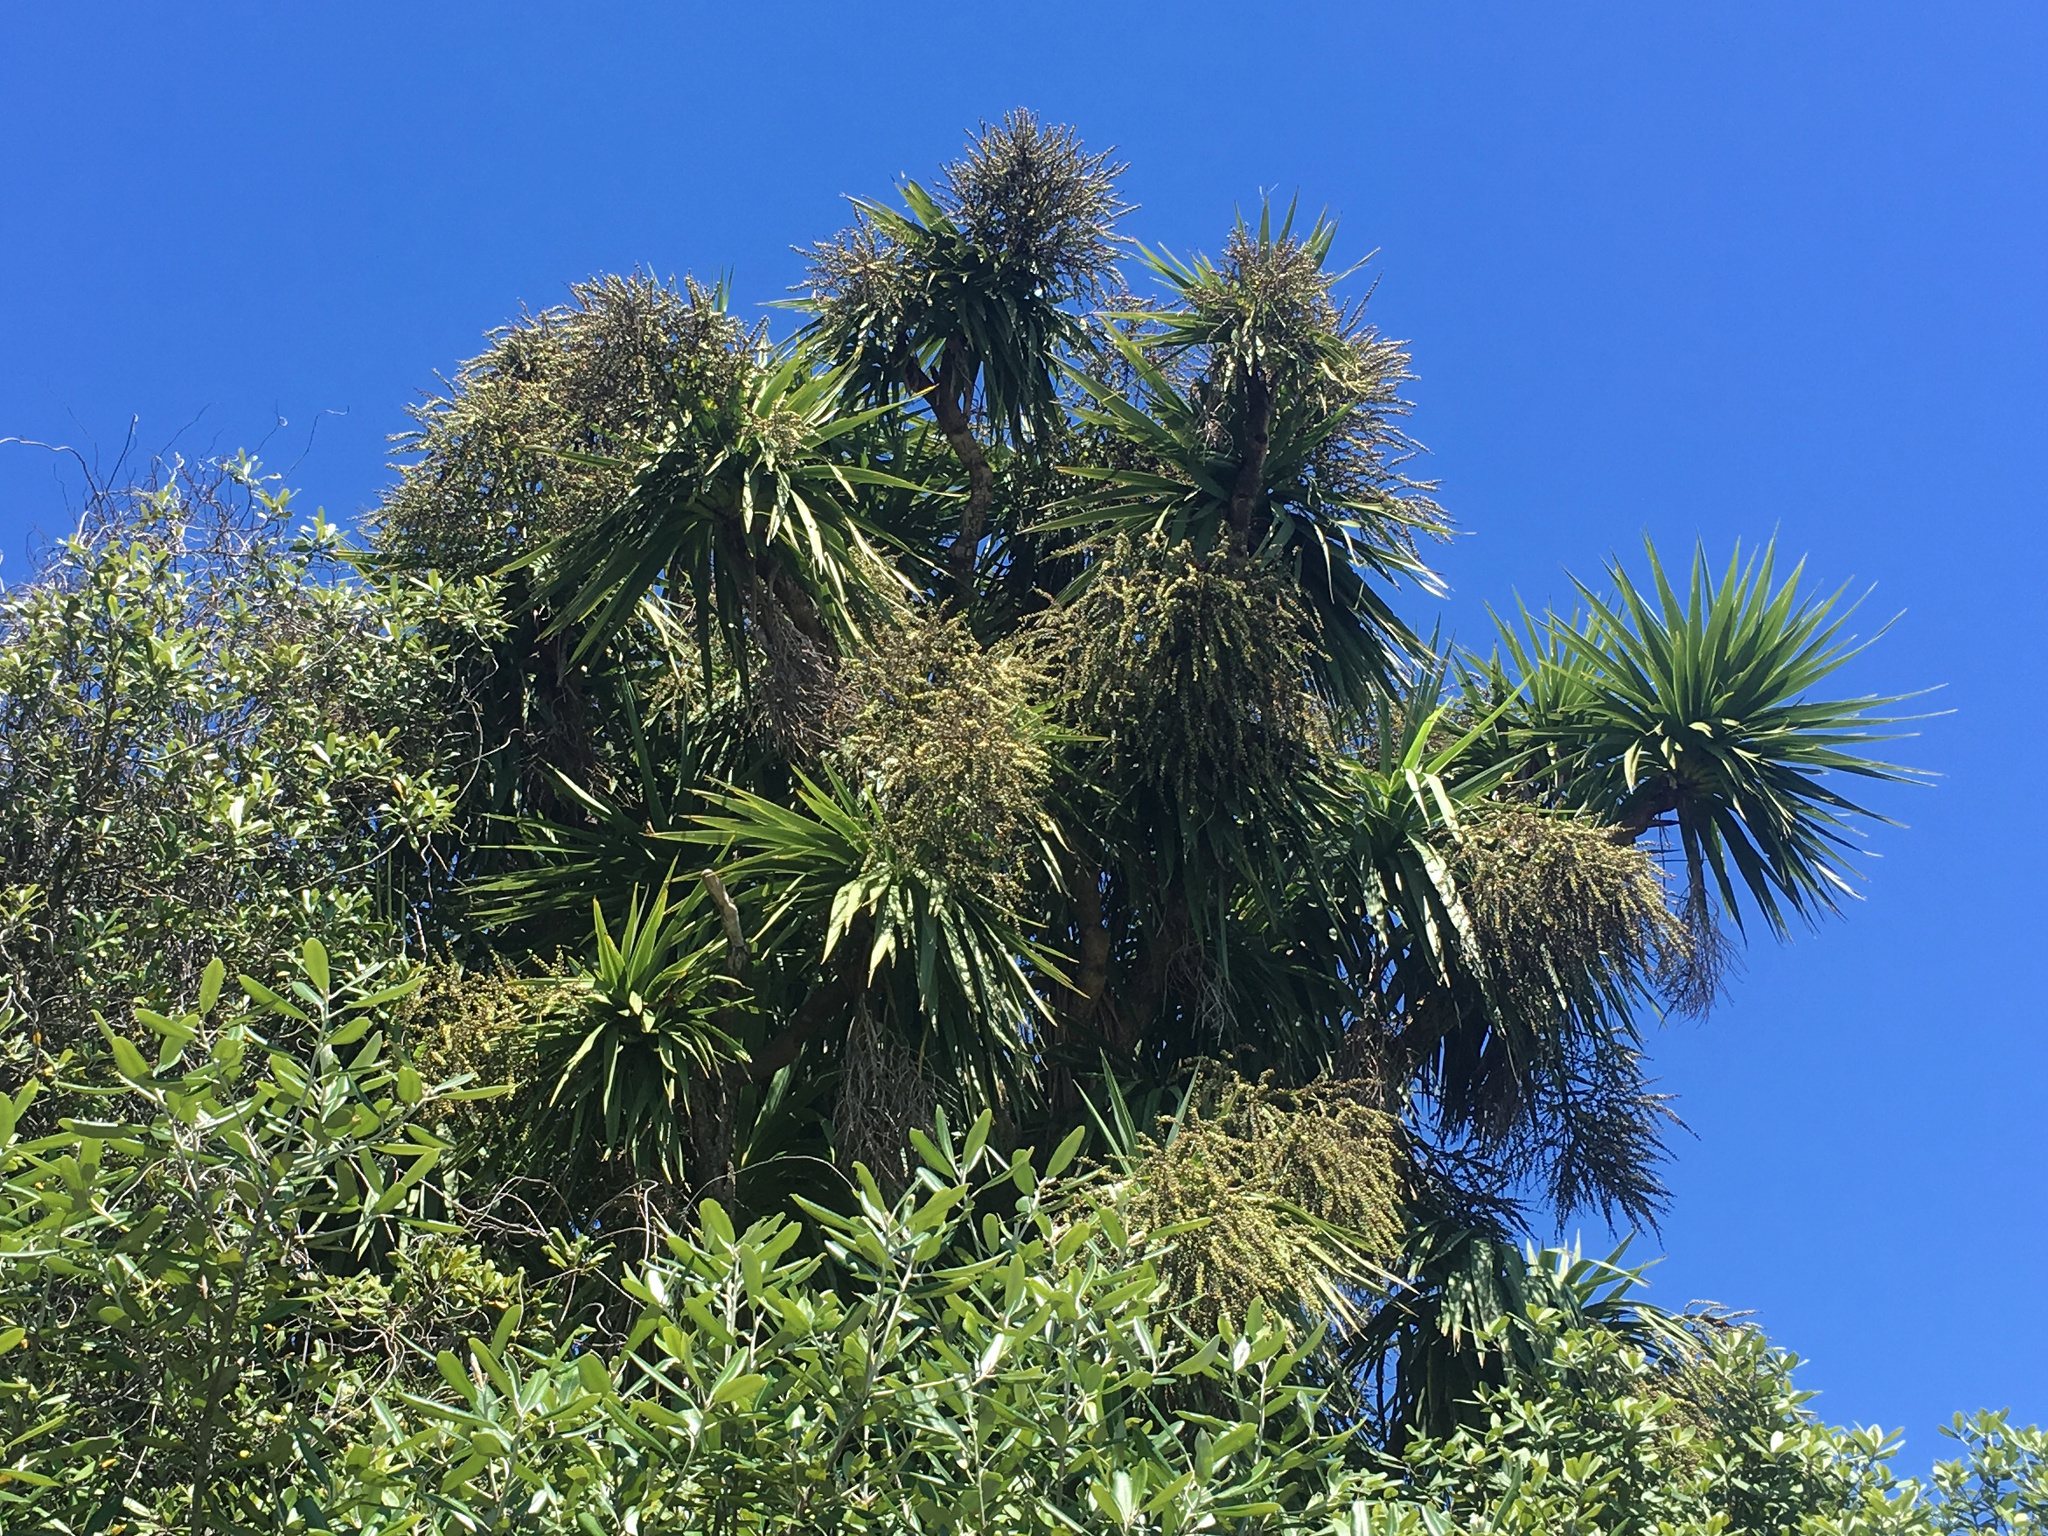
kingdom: Plantae
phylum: Tracheophyta
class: Liliopsida
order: Asparagales
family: Asparagaceae
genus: Cordyline
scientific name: Cordyline australis
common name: Cabbage-palm
